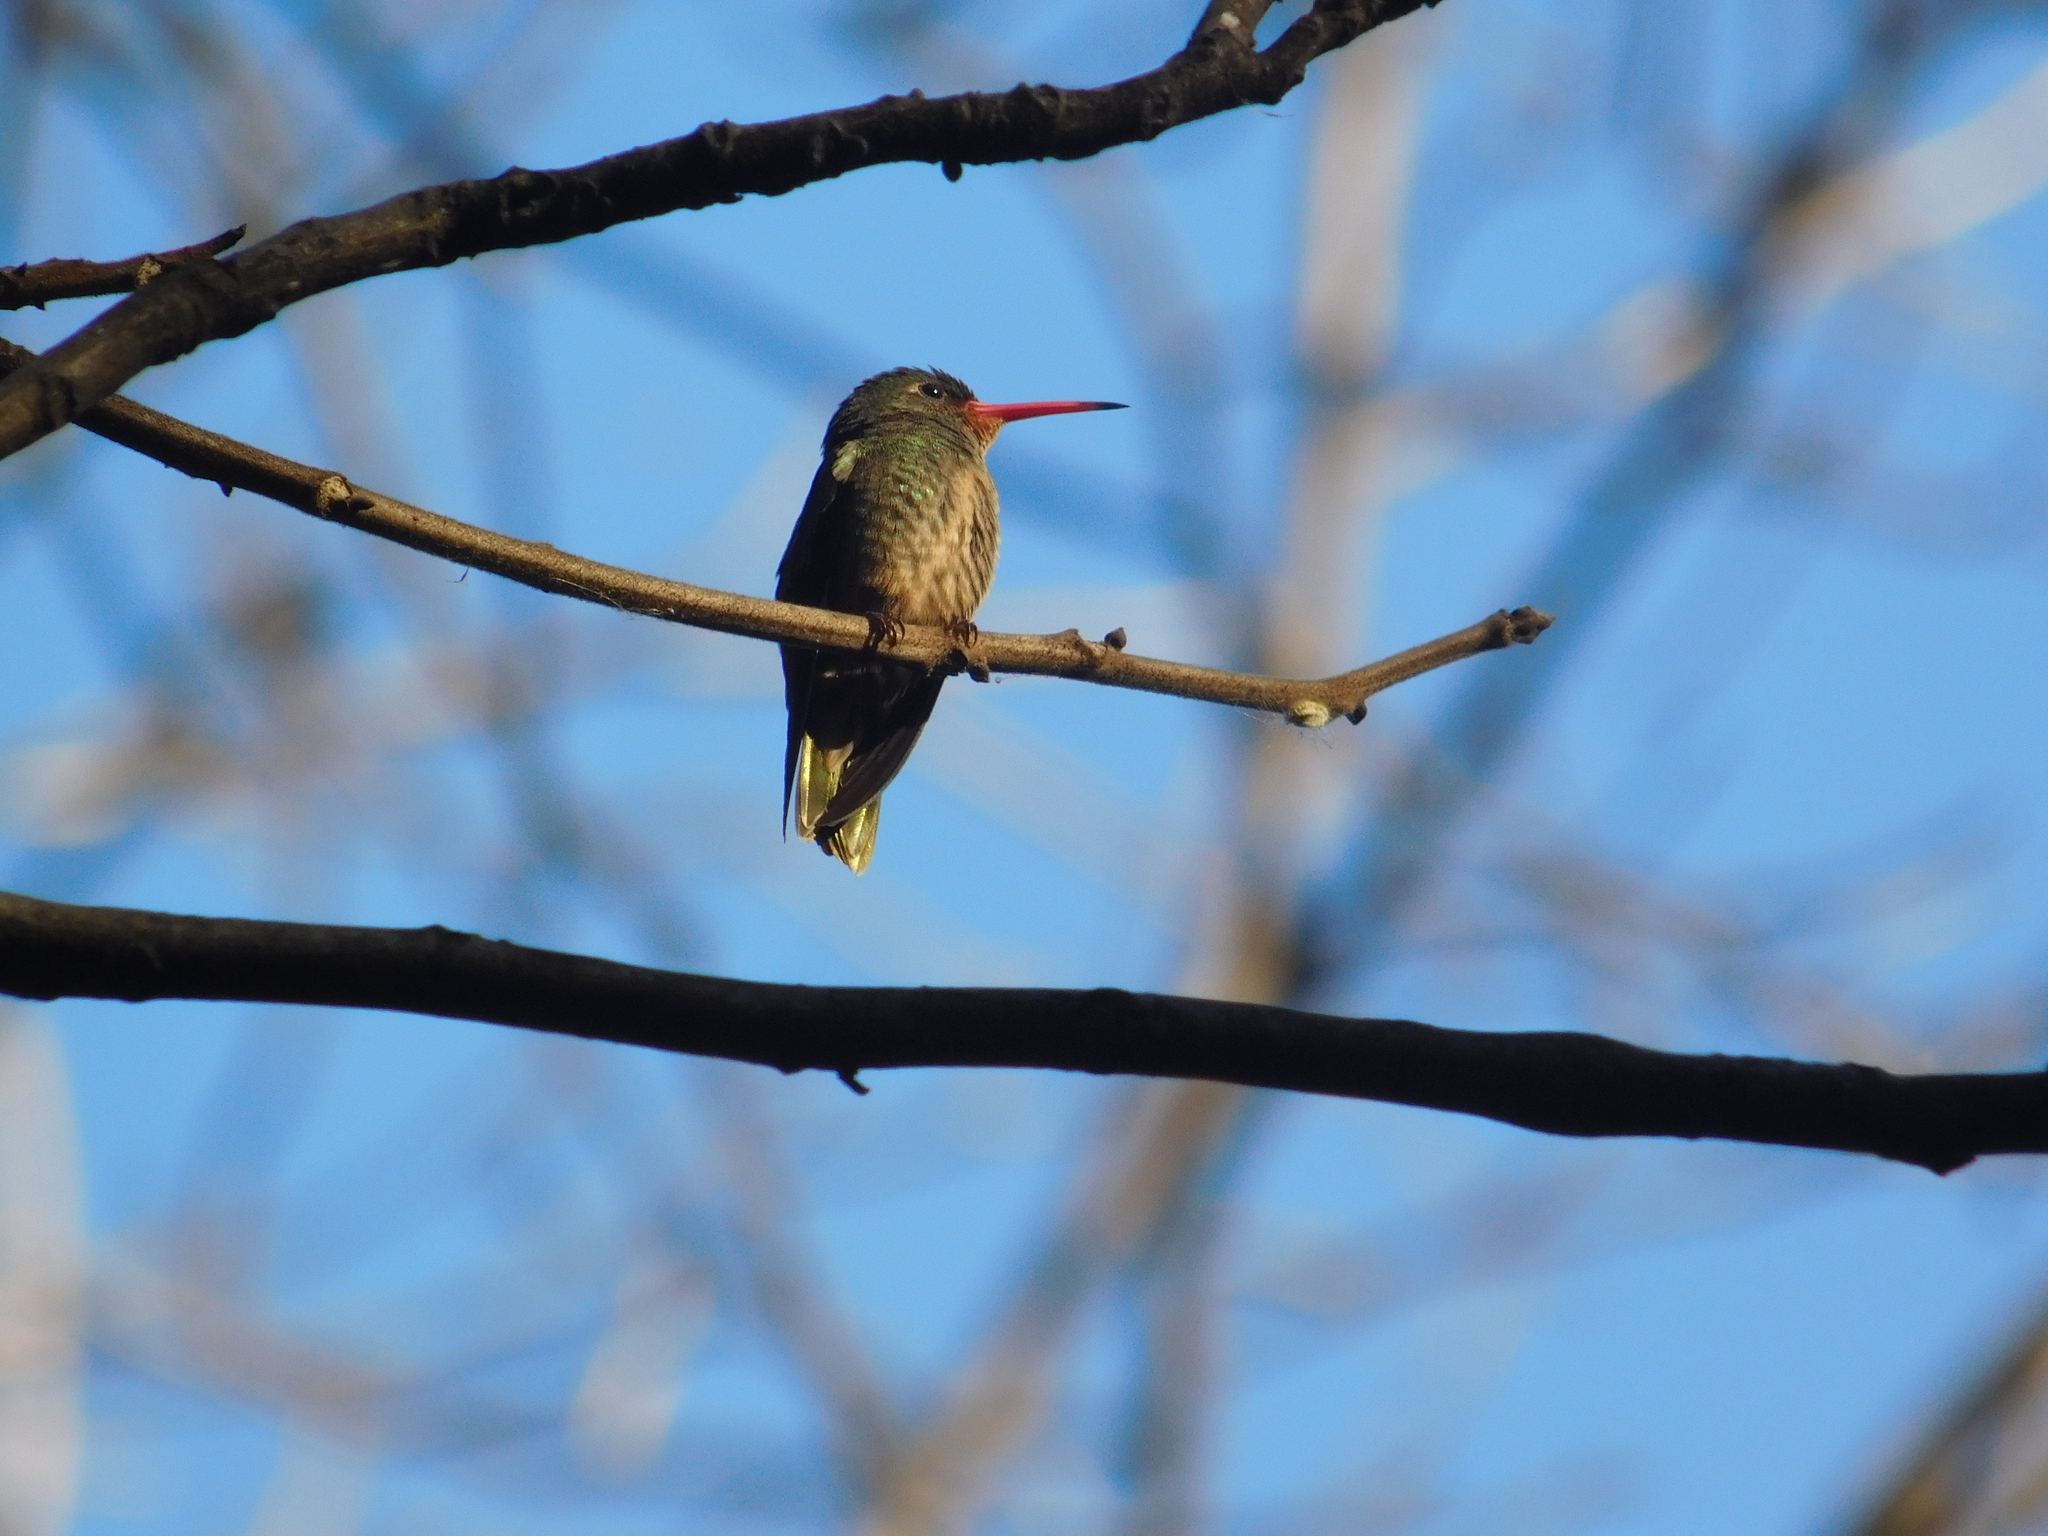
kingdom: Animalia
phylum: Chordata
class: Aves
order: Apodiformes
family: Trochilidae
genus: Hylocharis
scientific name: Hylocharis chrysura
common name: Gilded sapphire
